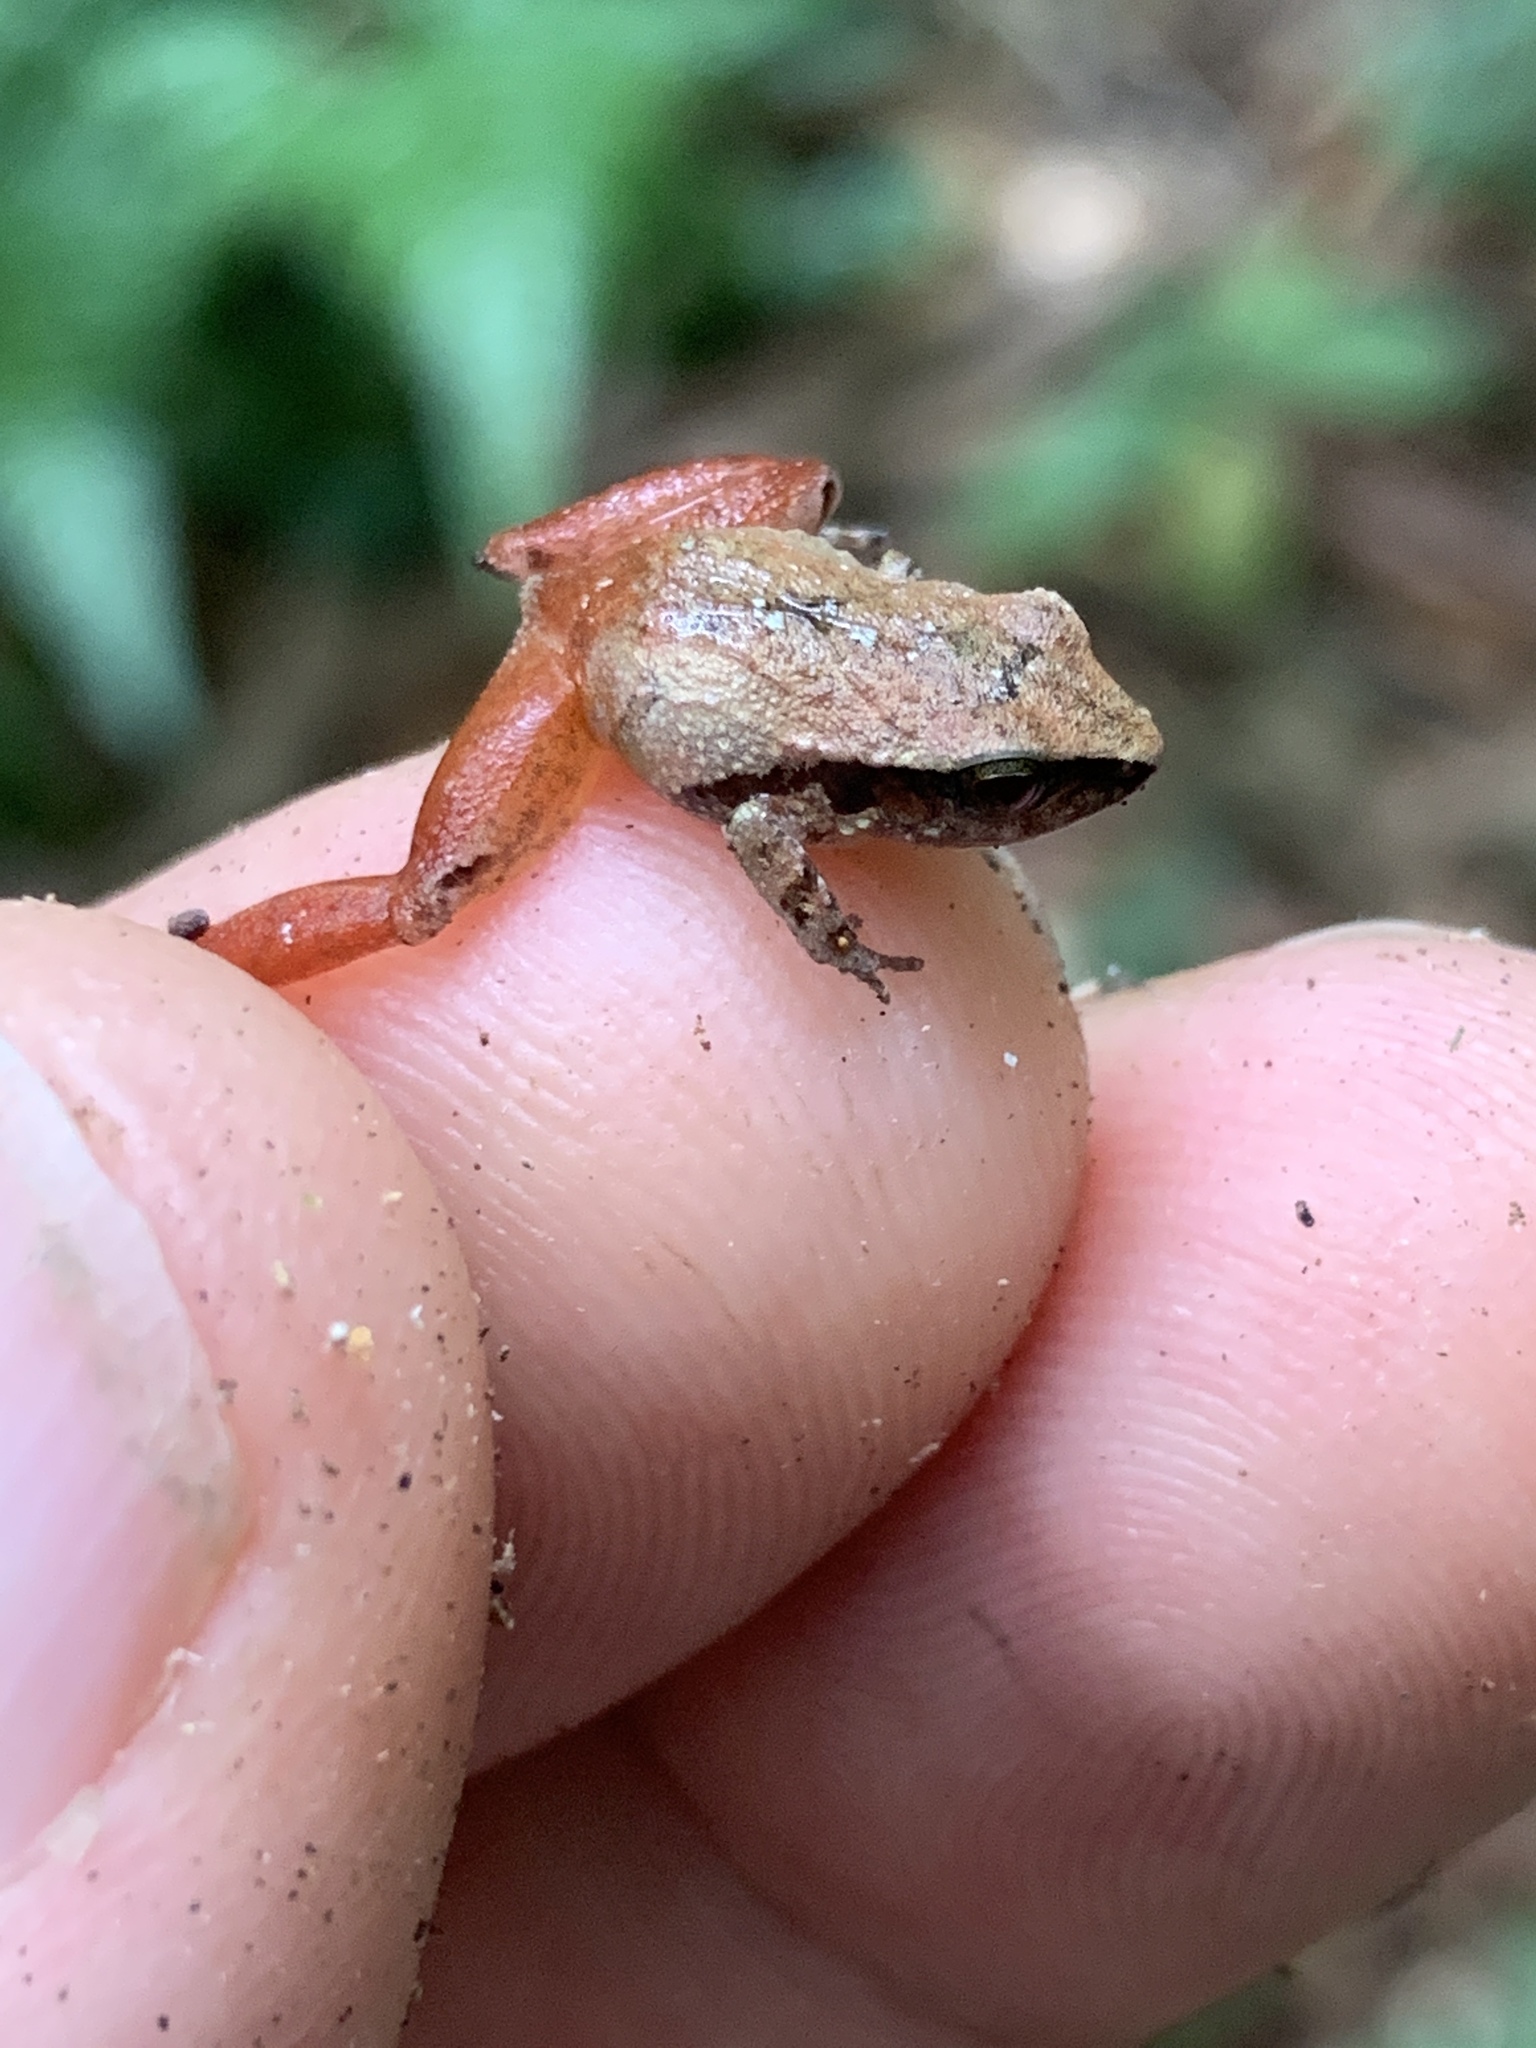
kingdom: Animalia
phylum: Chordata
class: Amphibia
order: Anura
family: Craugastoridae
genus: Craugastor
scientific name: Craugastor stejnegerianus
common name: Stejneger's robber frog
